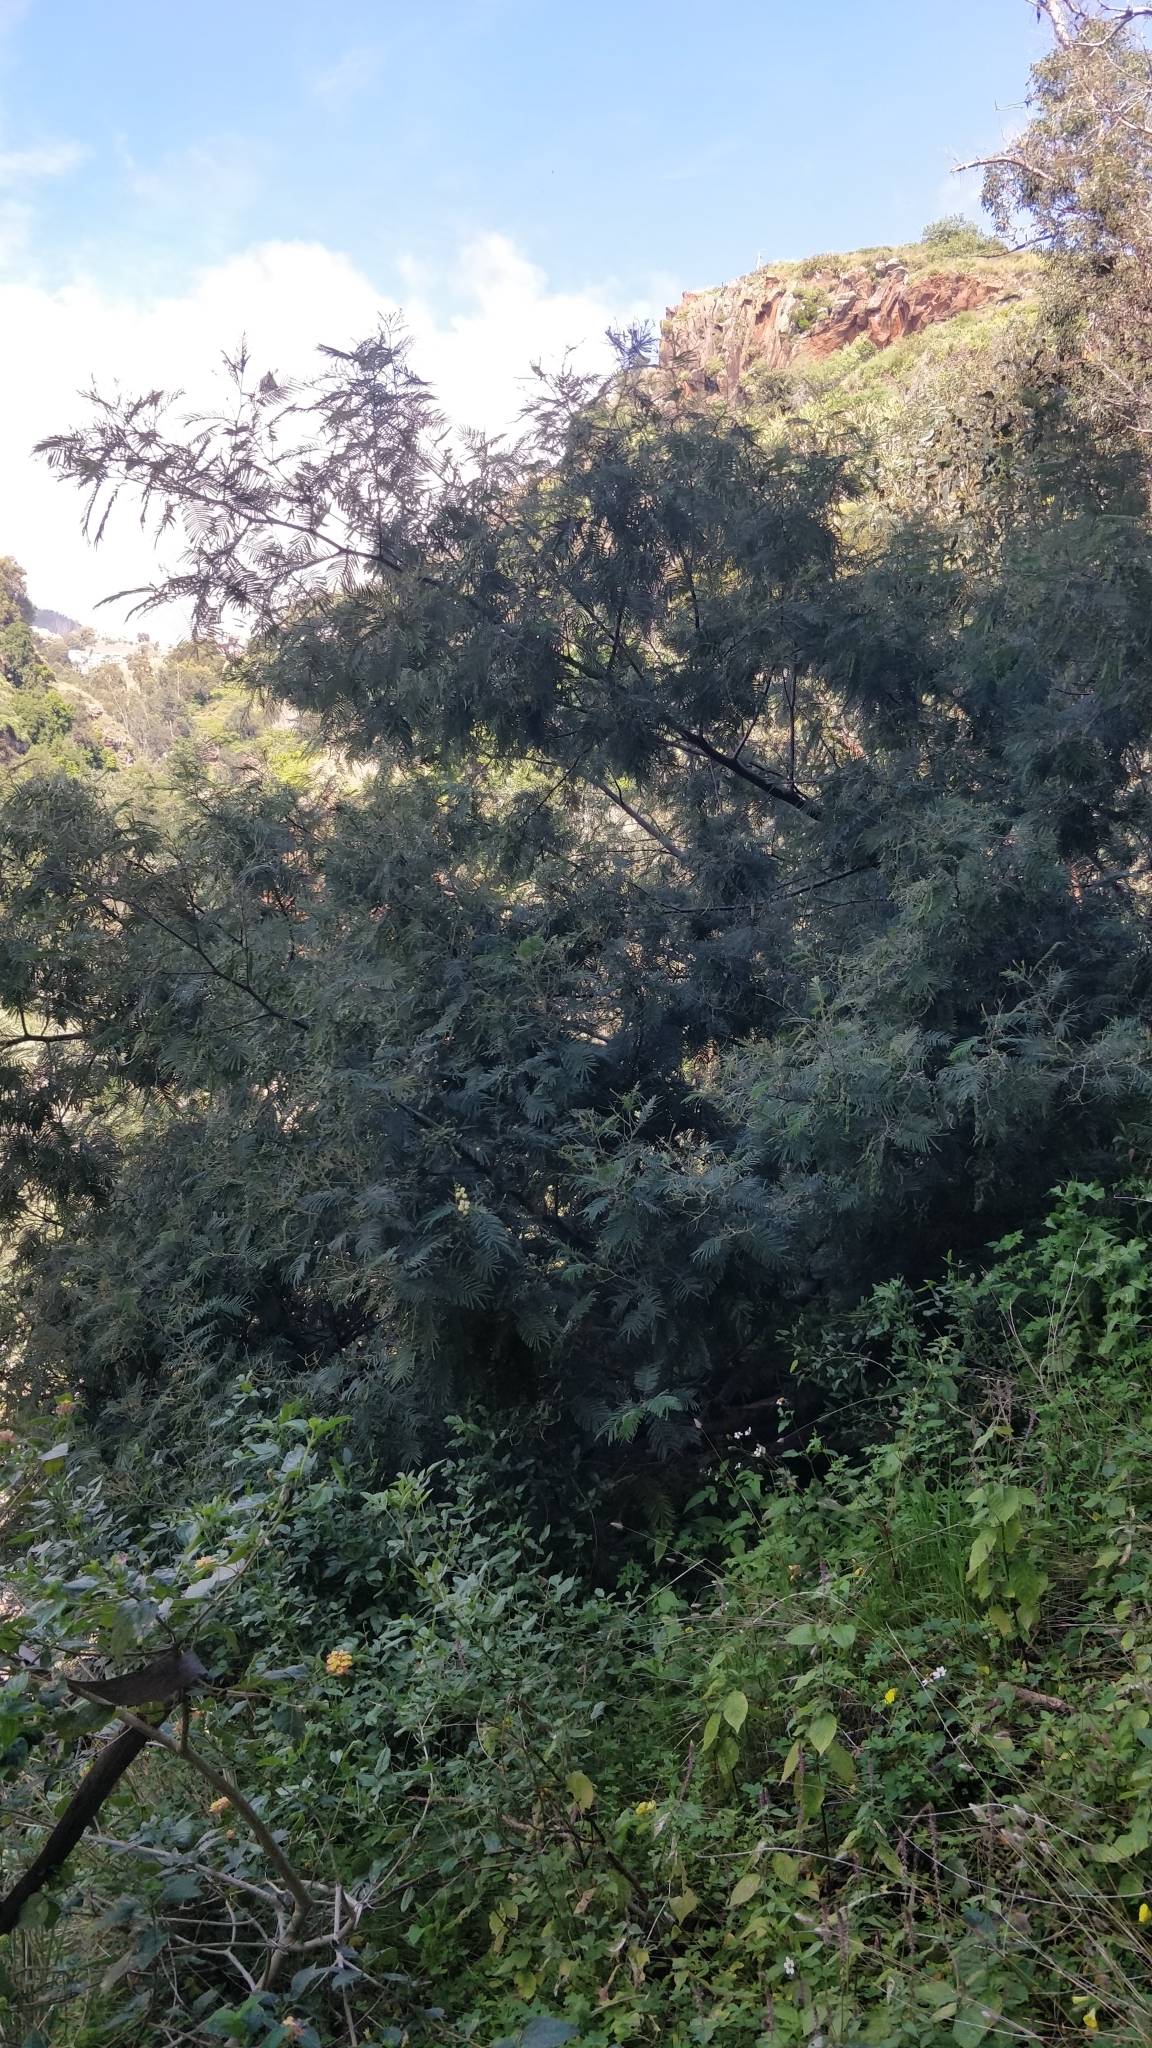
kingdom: Plantae
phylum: Tracheophyta
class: Magnoliopsida
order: Fabales
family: Fabaceae
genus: Acacia
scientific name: Acacia mearnsii
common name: Black wattle
